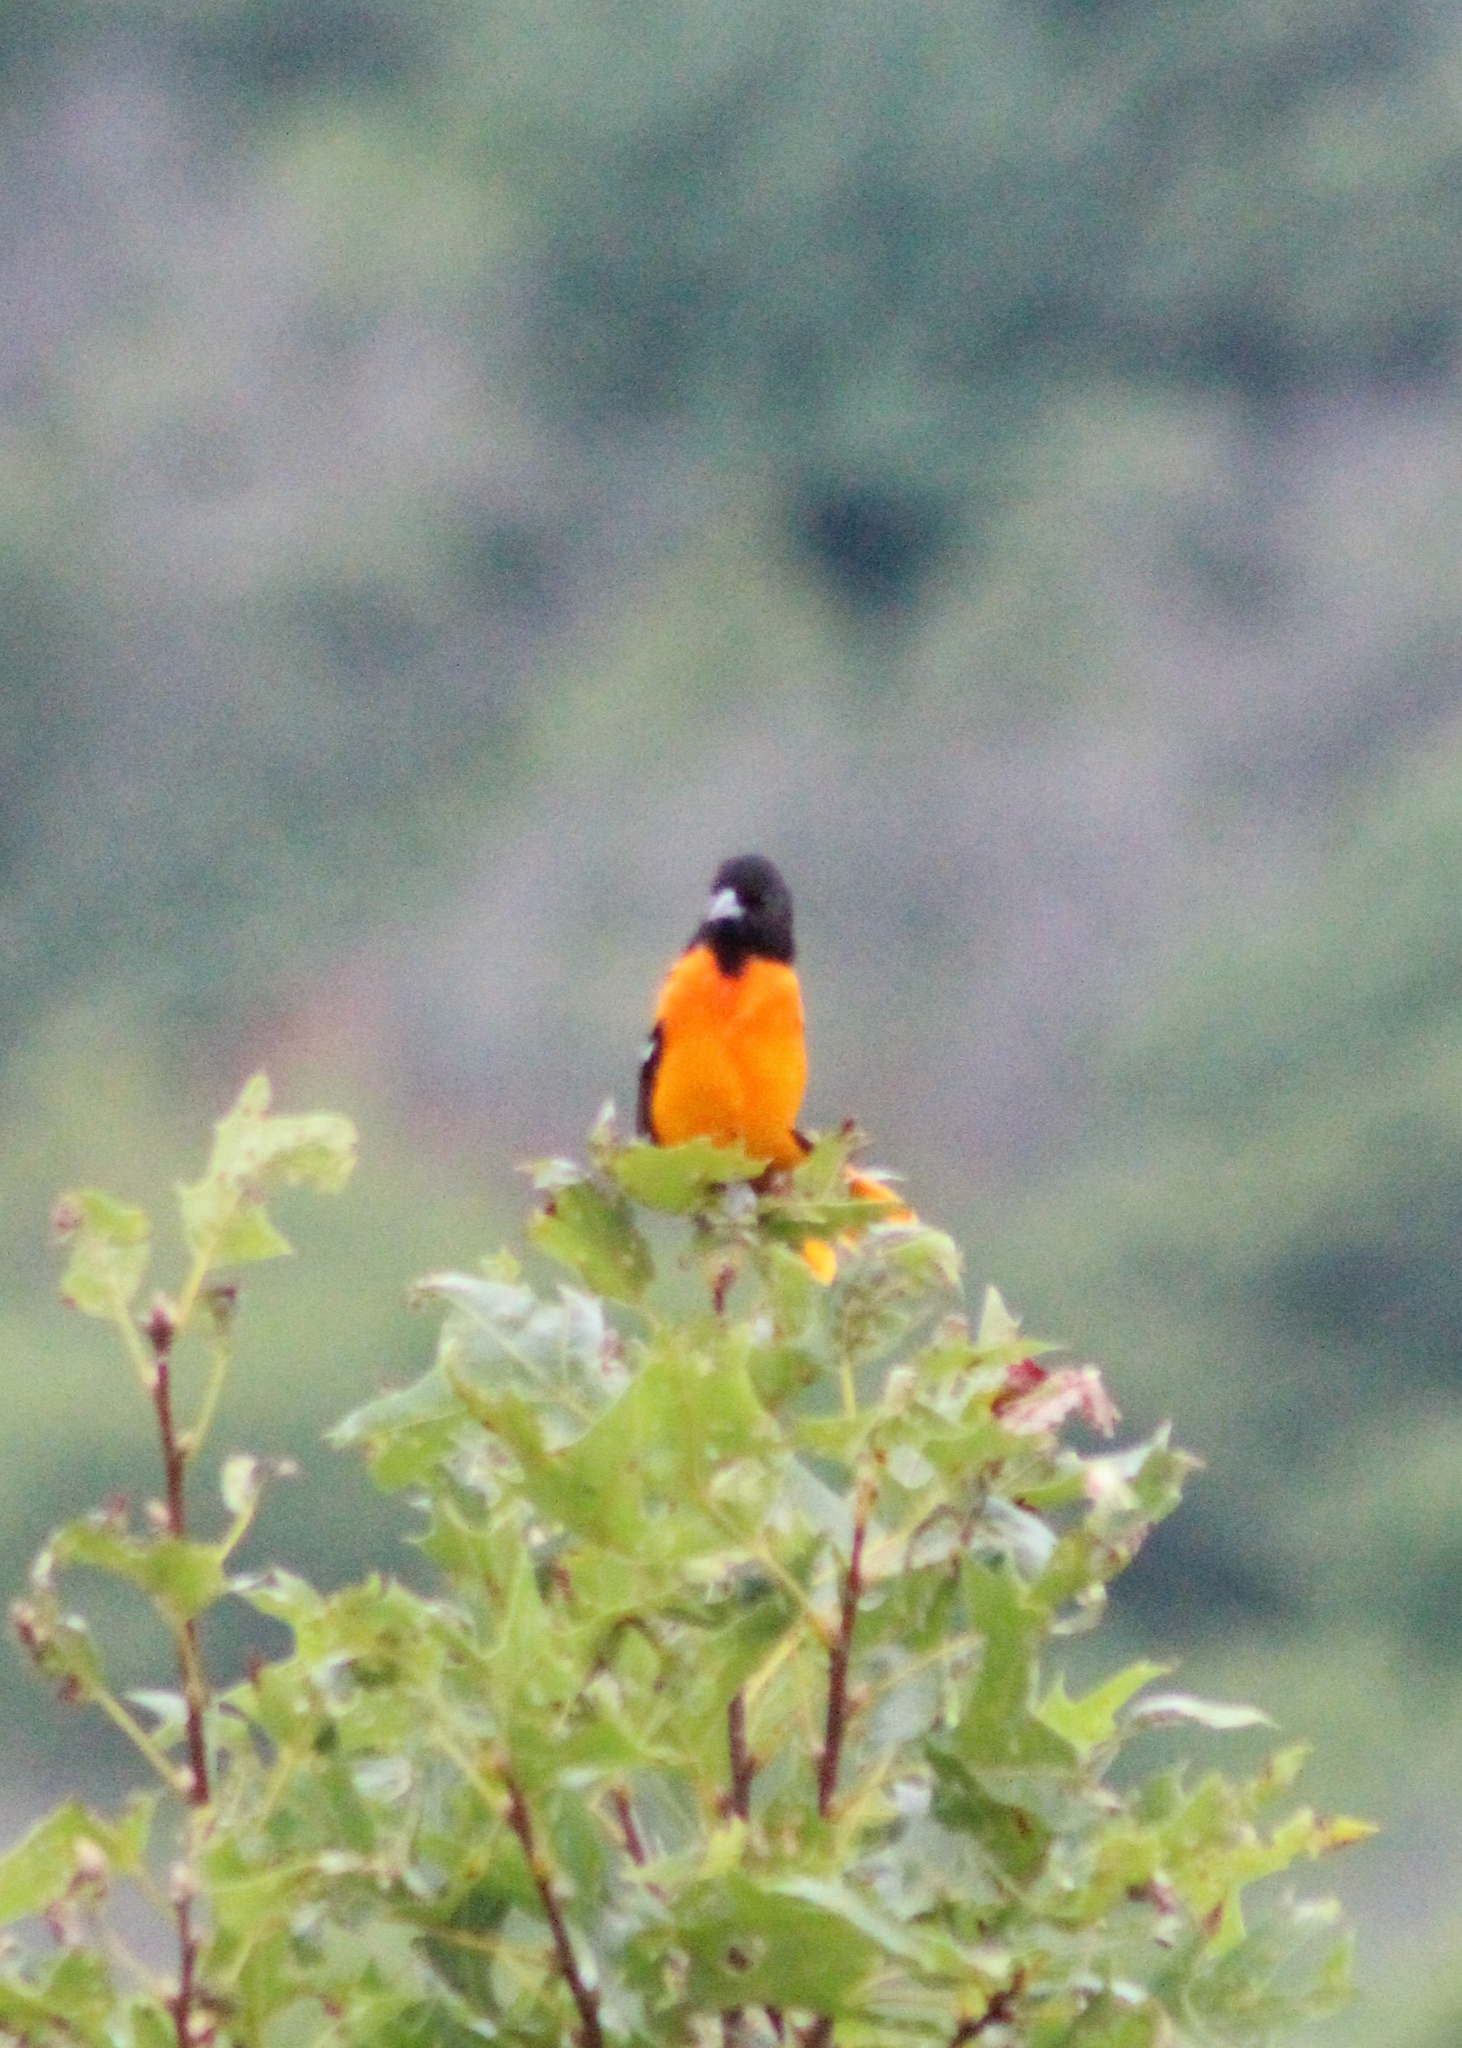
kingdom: Animalia
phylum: Chordata
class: Aves
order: Passeriformes
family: Icteridae
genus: Icterus
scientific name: Icterus galbula
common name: Baltimore oriole
